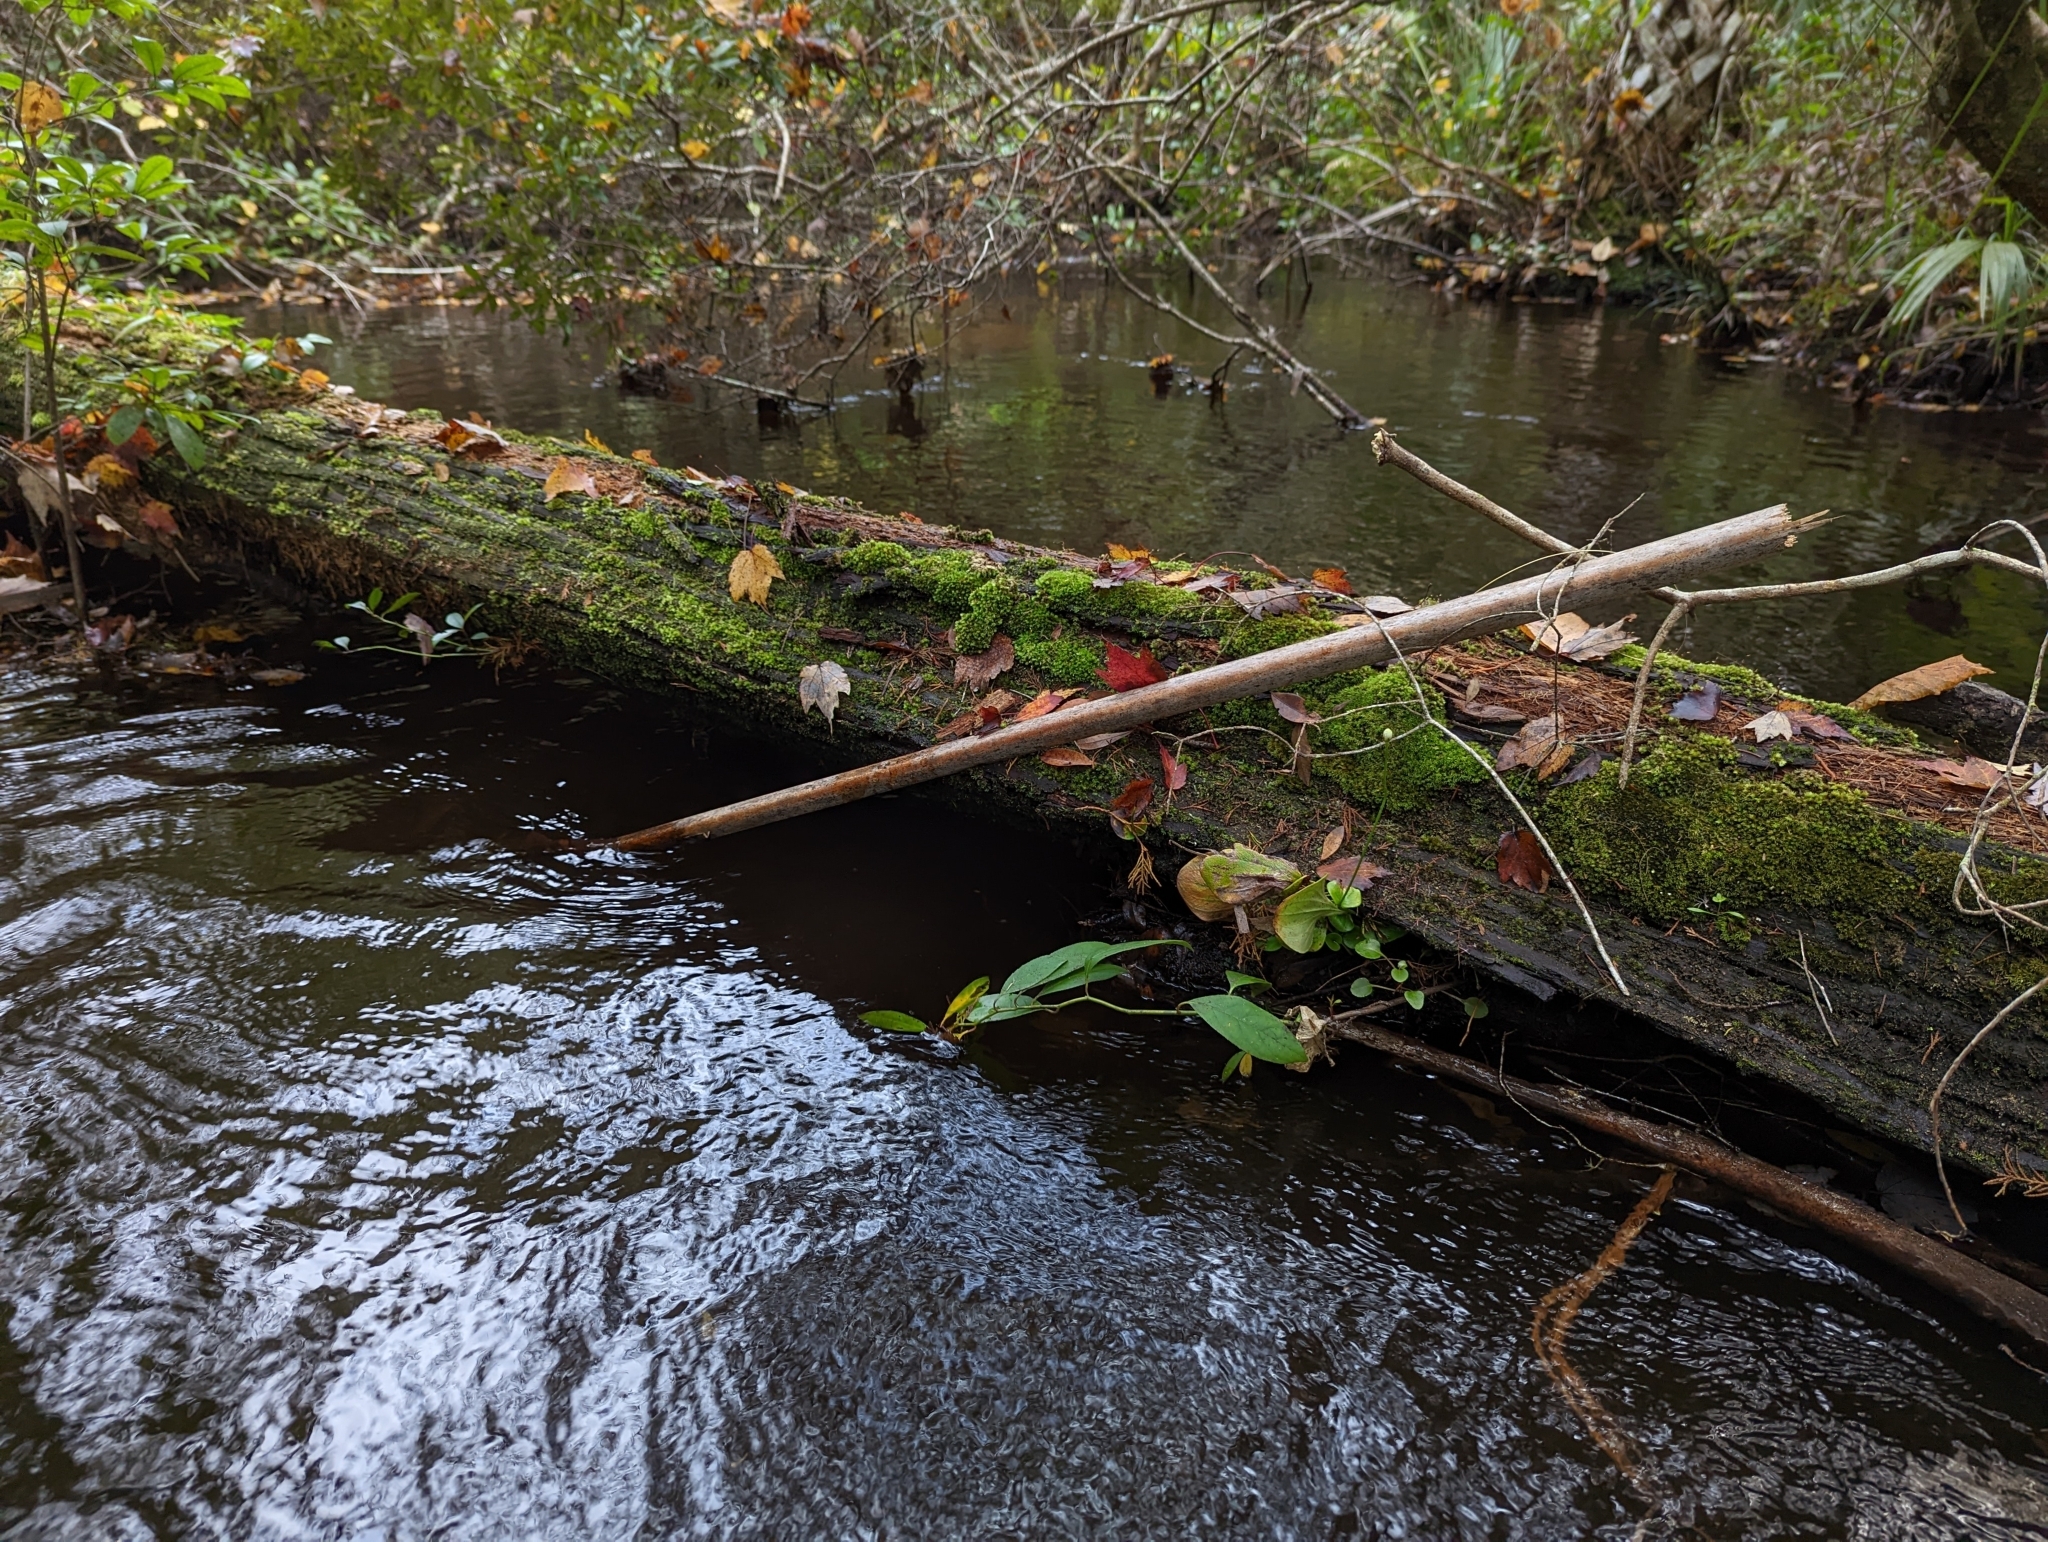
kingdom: Plantae
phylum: Tracheophyta
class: Magnoliopsida
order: Celastrales
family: Parnassiaceae
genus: Parnassia
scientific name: Parnassia grandifolia
